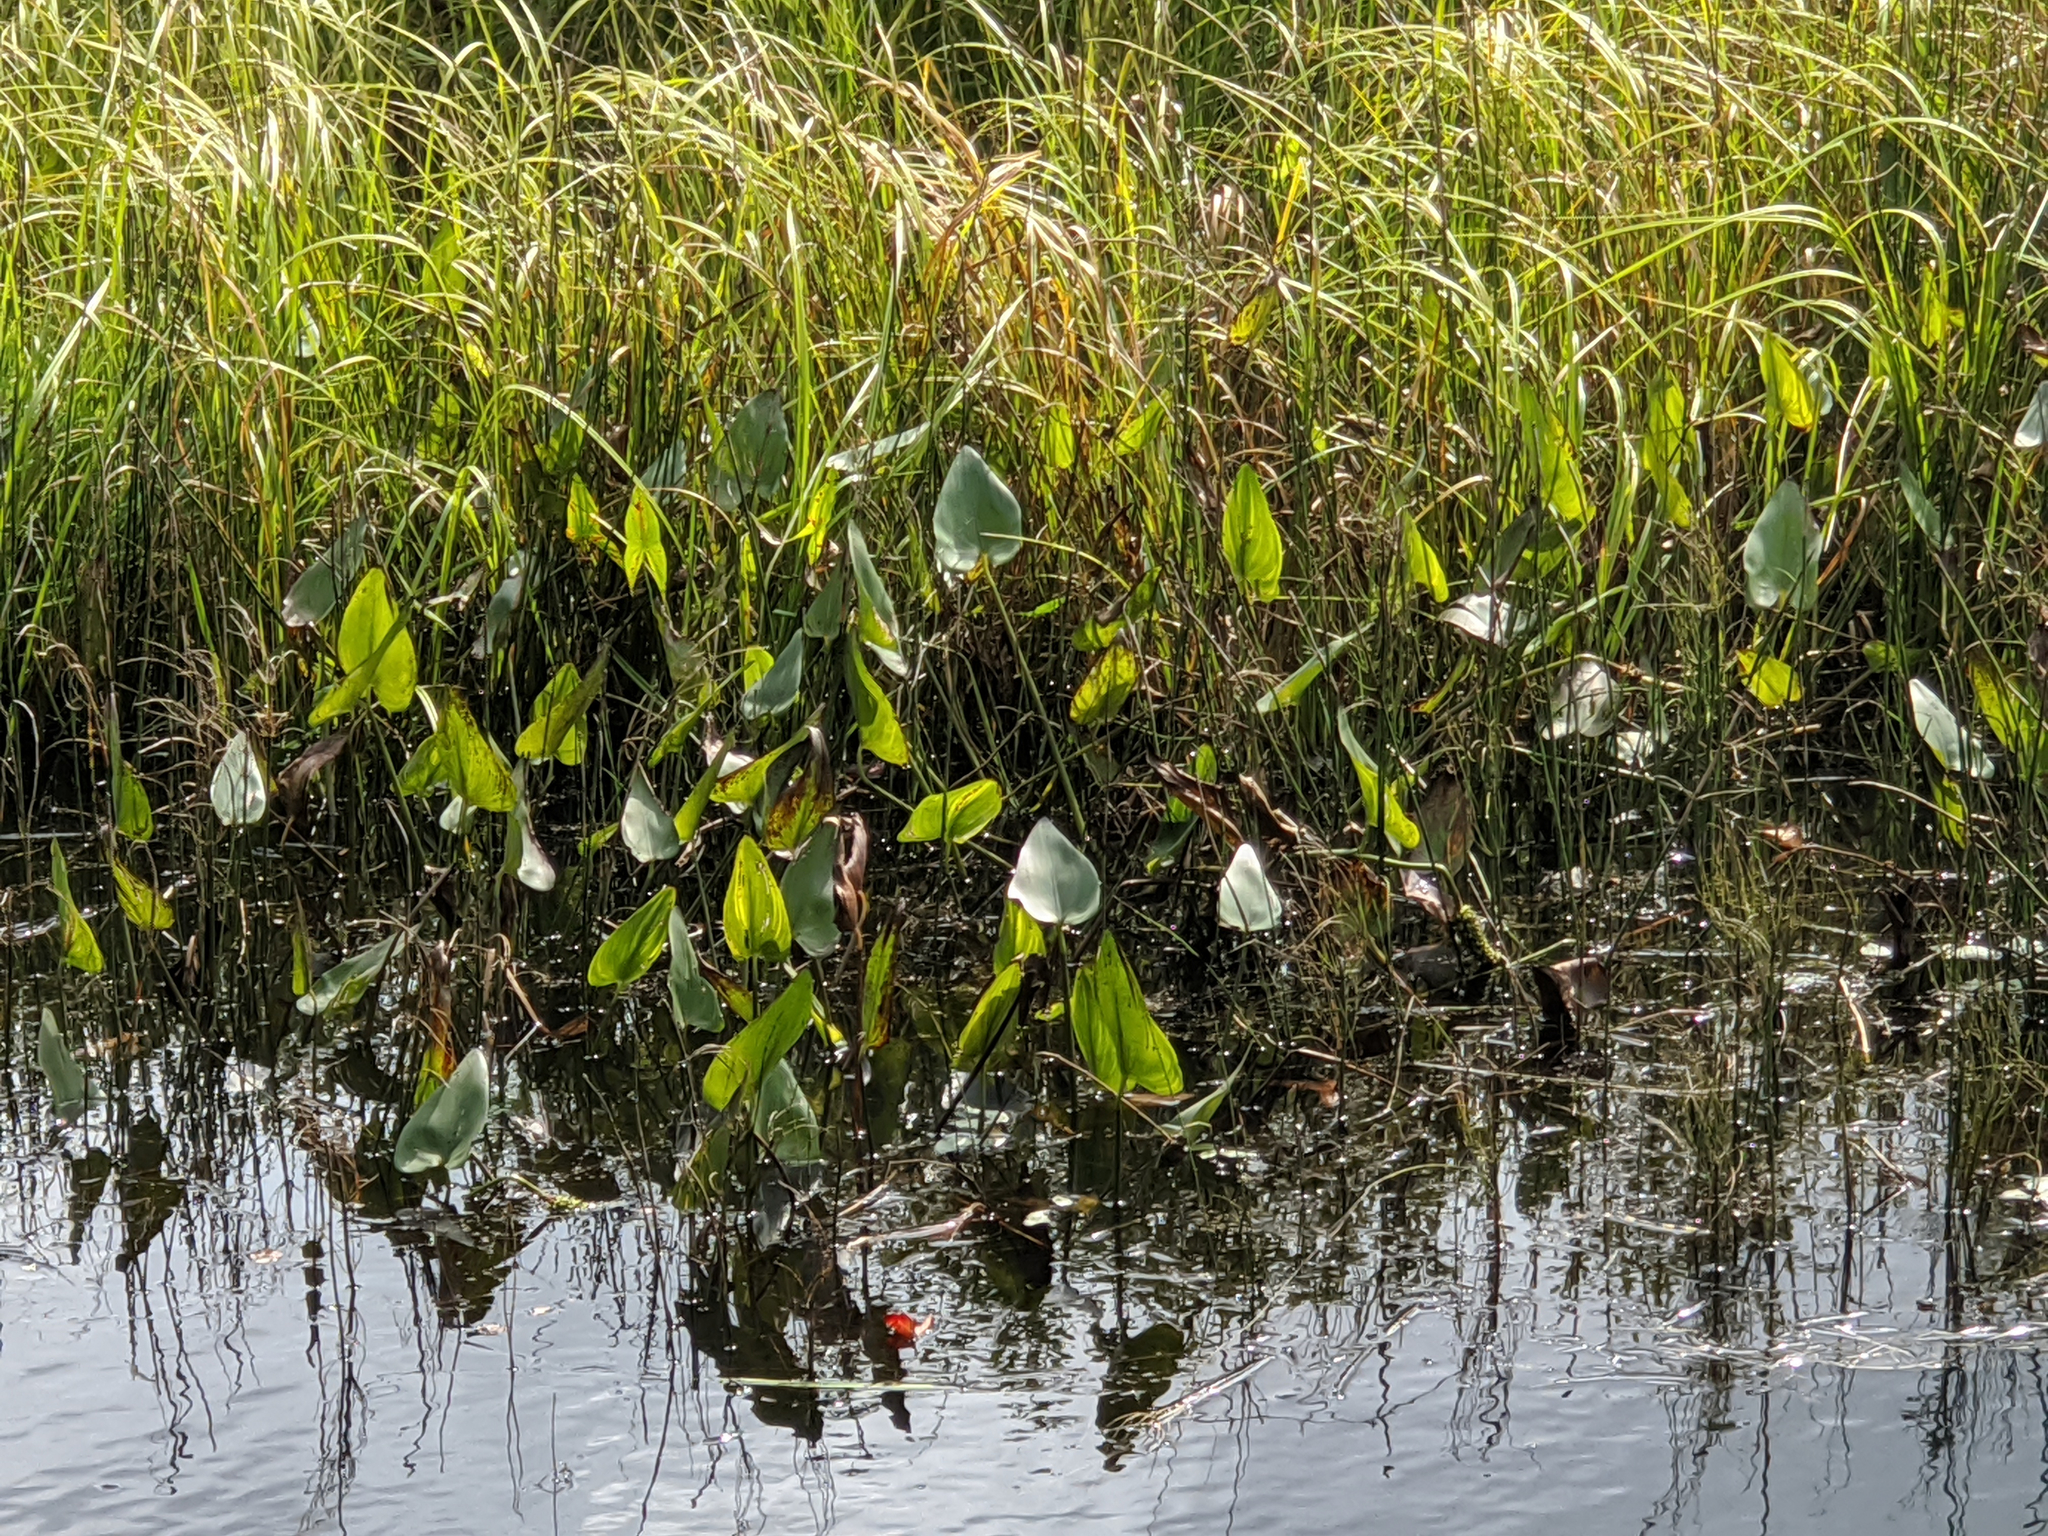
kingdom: Plantae
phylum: Tracheophyta
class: Liliopsida
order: Commelinales
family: Pontederiaceae
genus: Pontederia
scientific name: Pontederia cordata
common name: Pickerelweed
